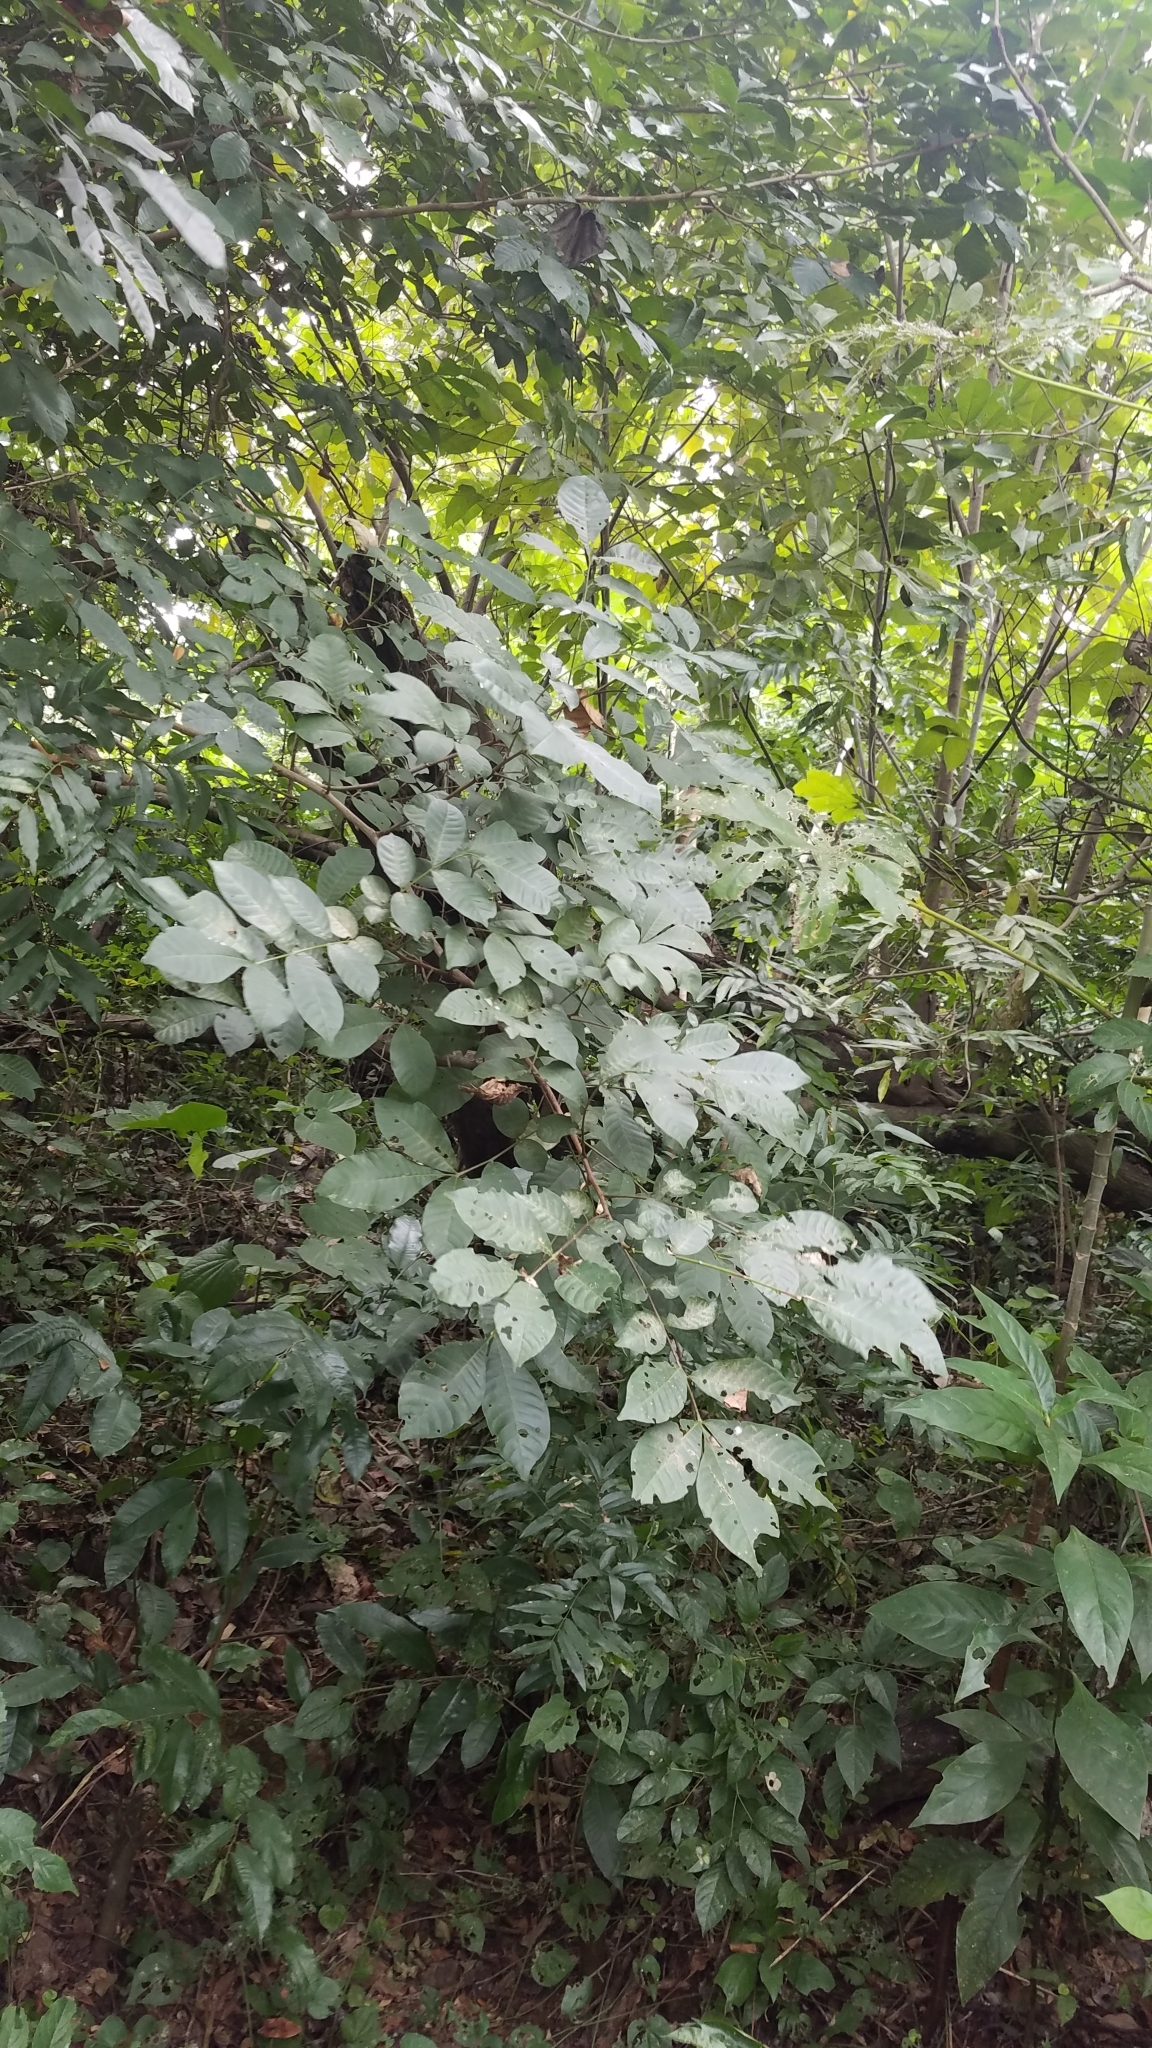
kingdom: Plantae
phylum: Tracheophyta
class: Magnoliopsida
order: Sapindales
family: Meliaceae
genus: Trichilia
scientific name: Trichilia martiana
